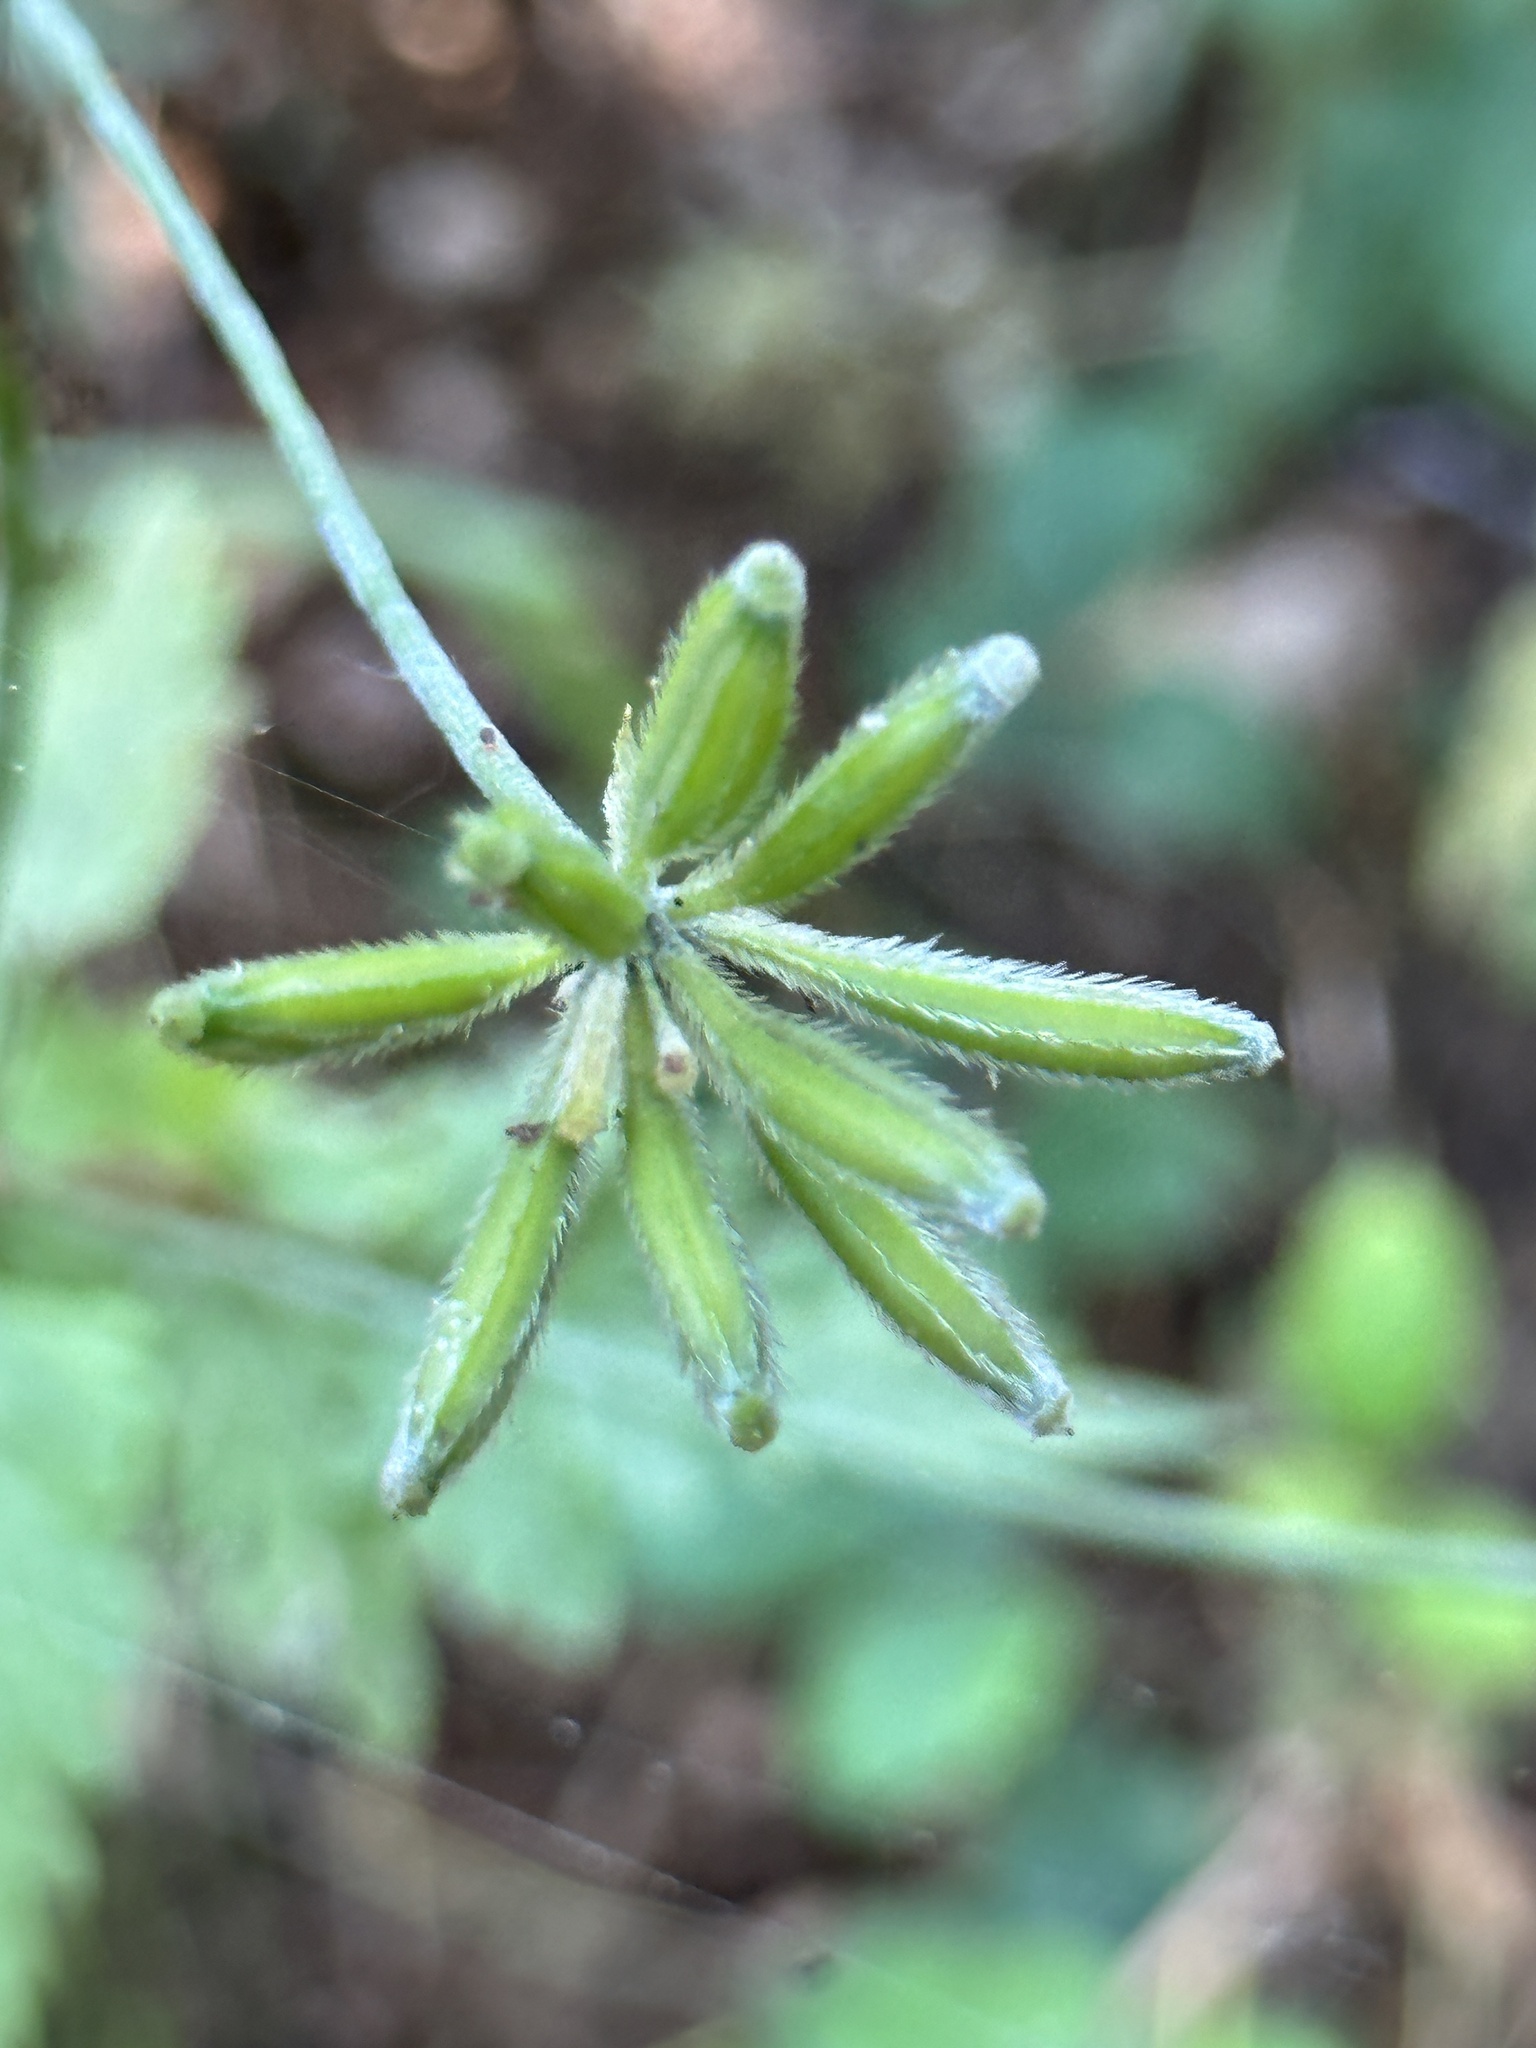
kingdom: Plantae
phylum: Tracheophyta
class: Magnoliopsida
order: Apiales
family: Apiaceae
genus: Osmorhiza
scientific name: Osmorhiza brachypoda
